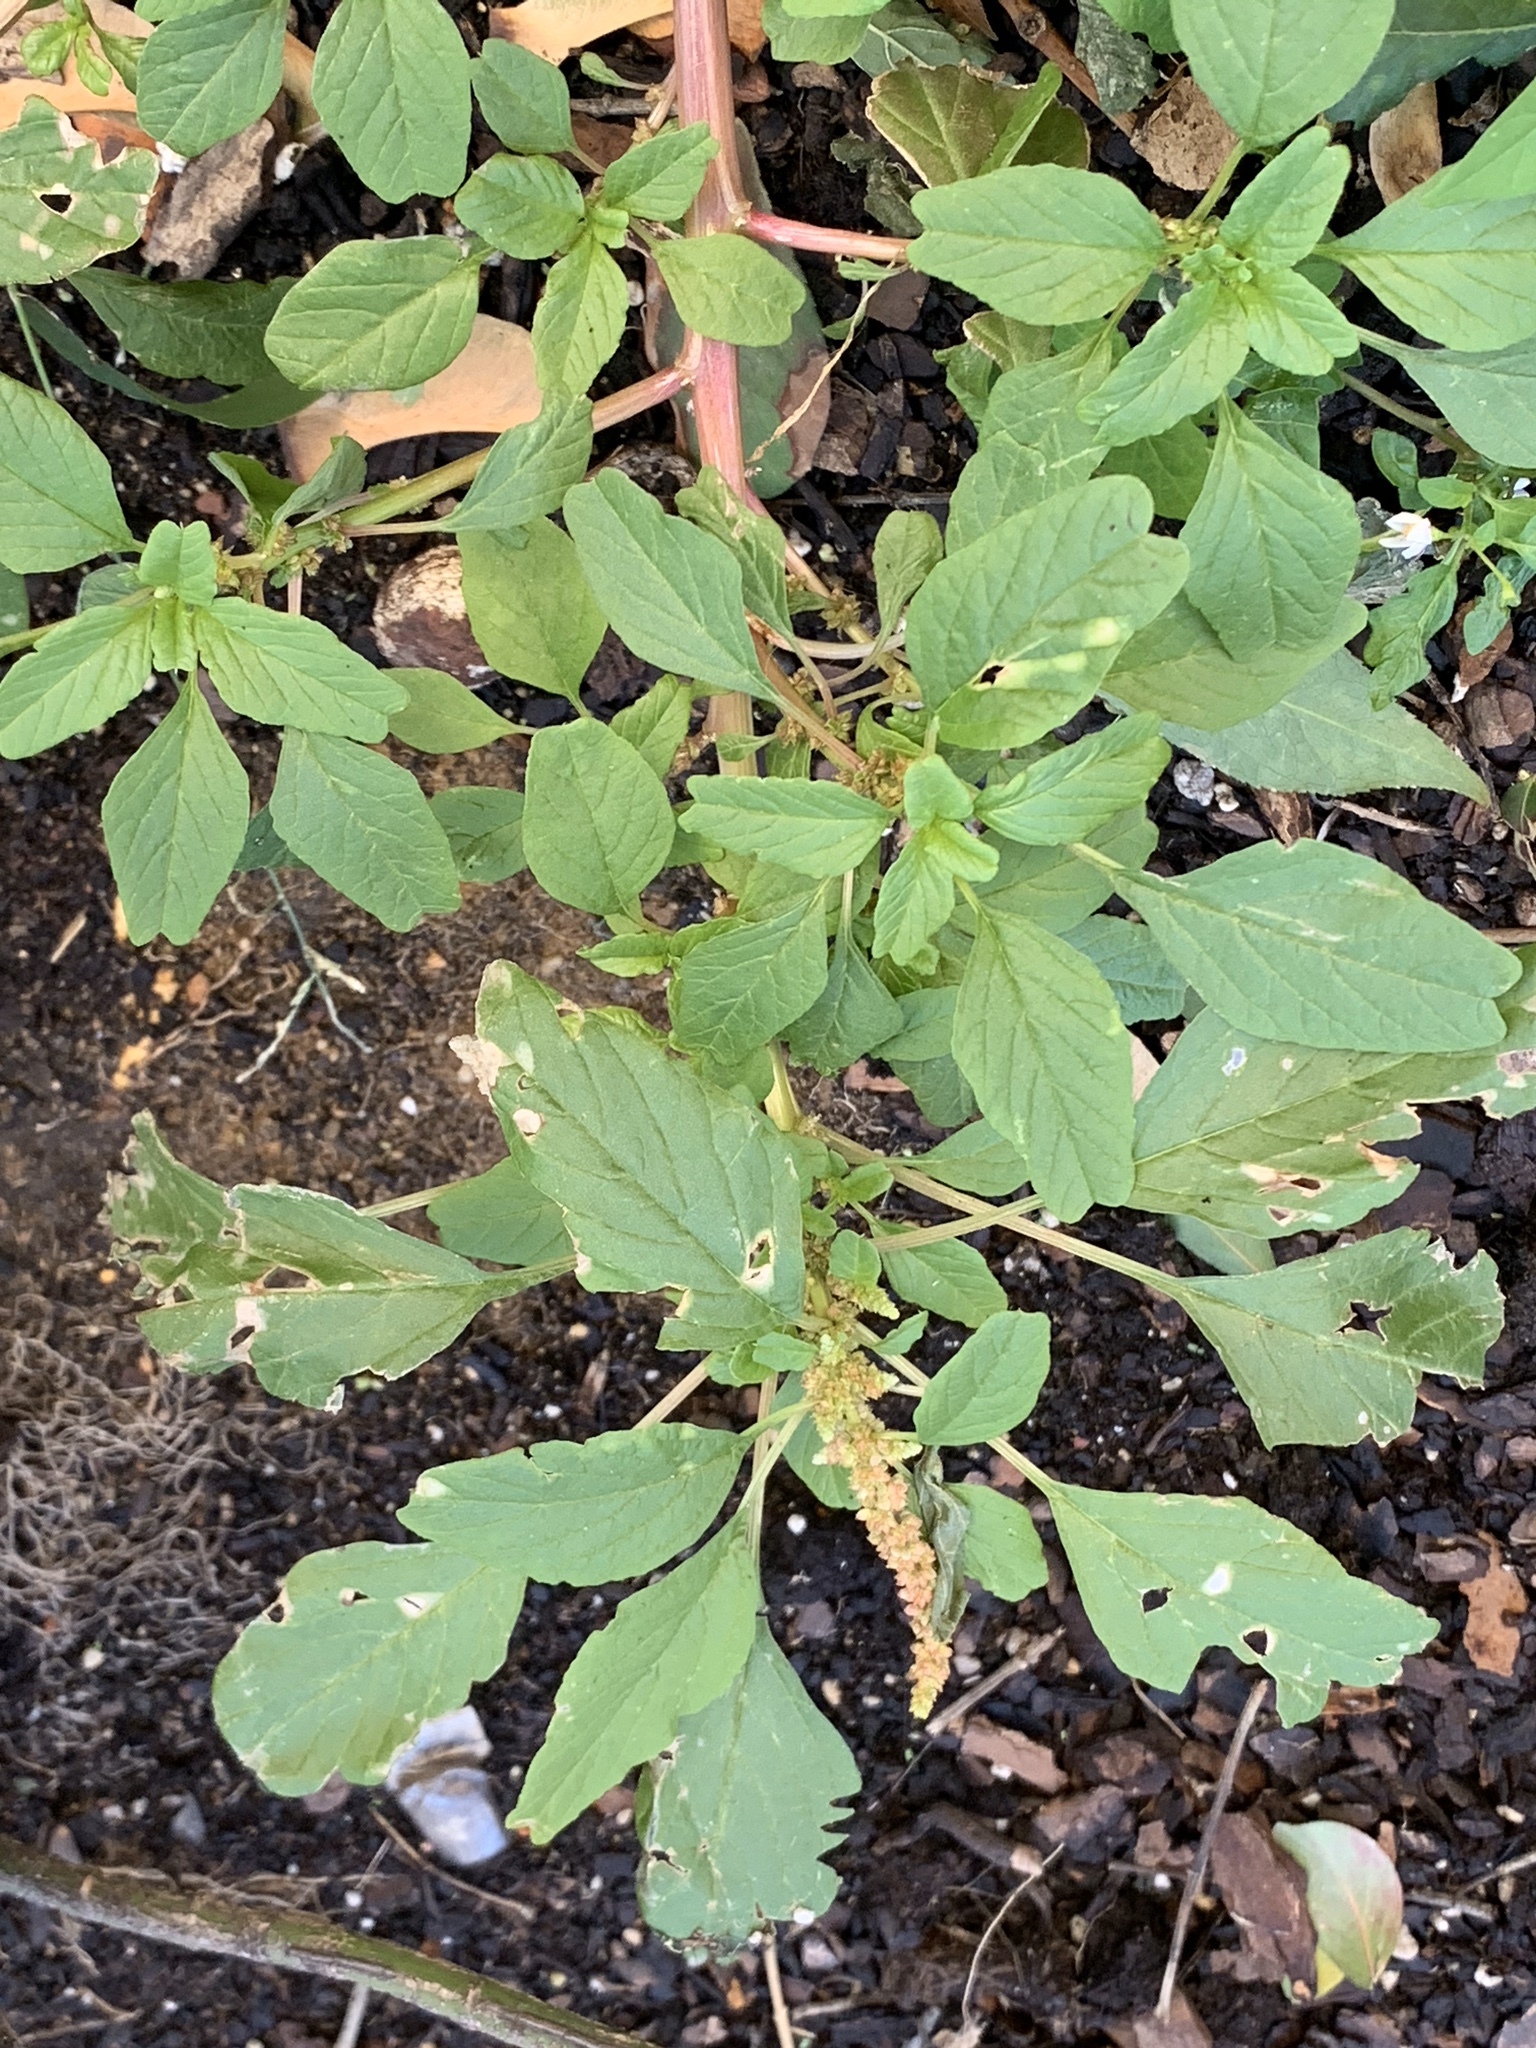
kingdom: Plantae
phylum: Tracheophyta
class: Magnoliopsida
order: Caryophyllales
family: Amaranthaceae
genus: Amaranthus
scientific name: Amaranthus blitum
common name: Purple amaranth
